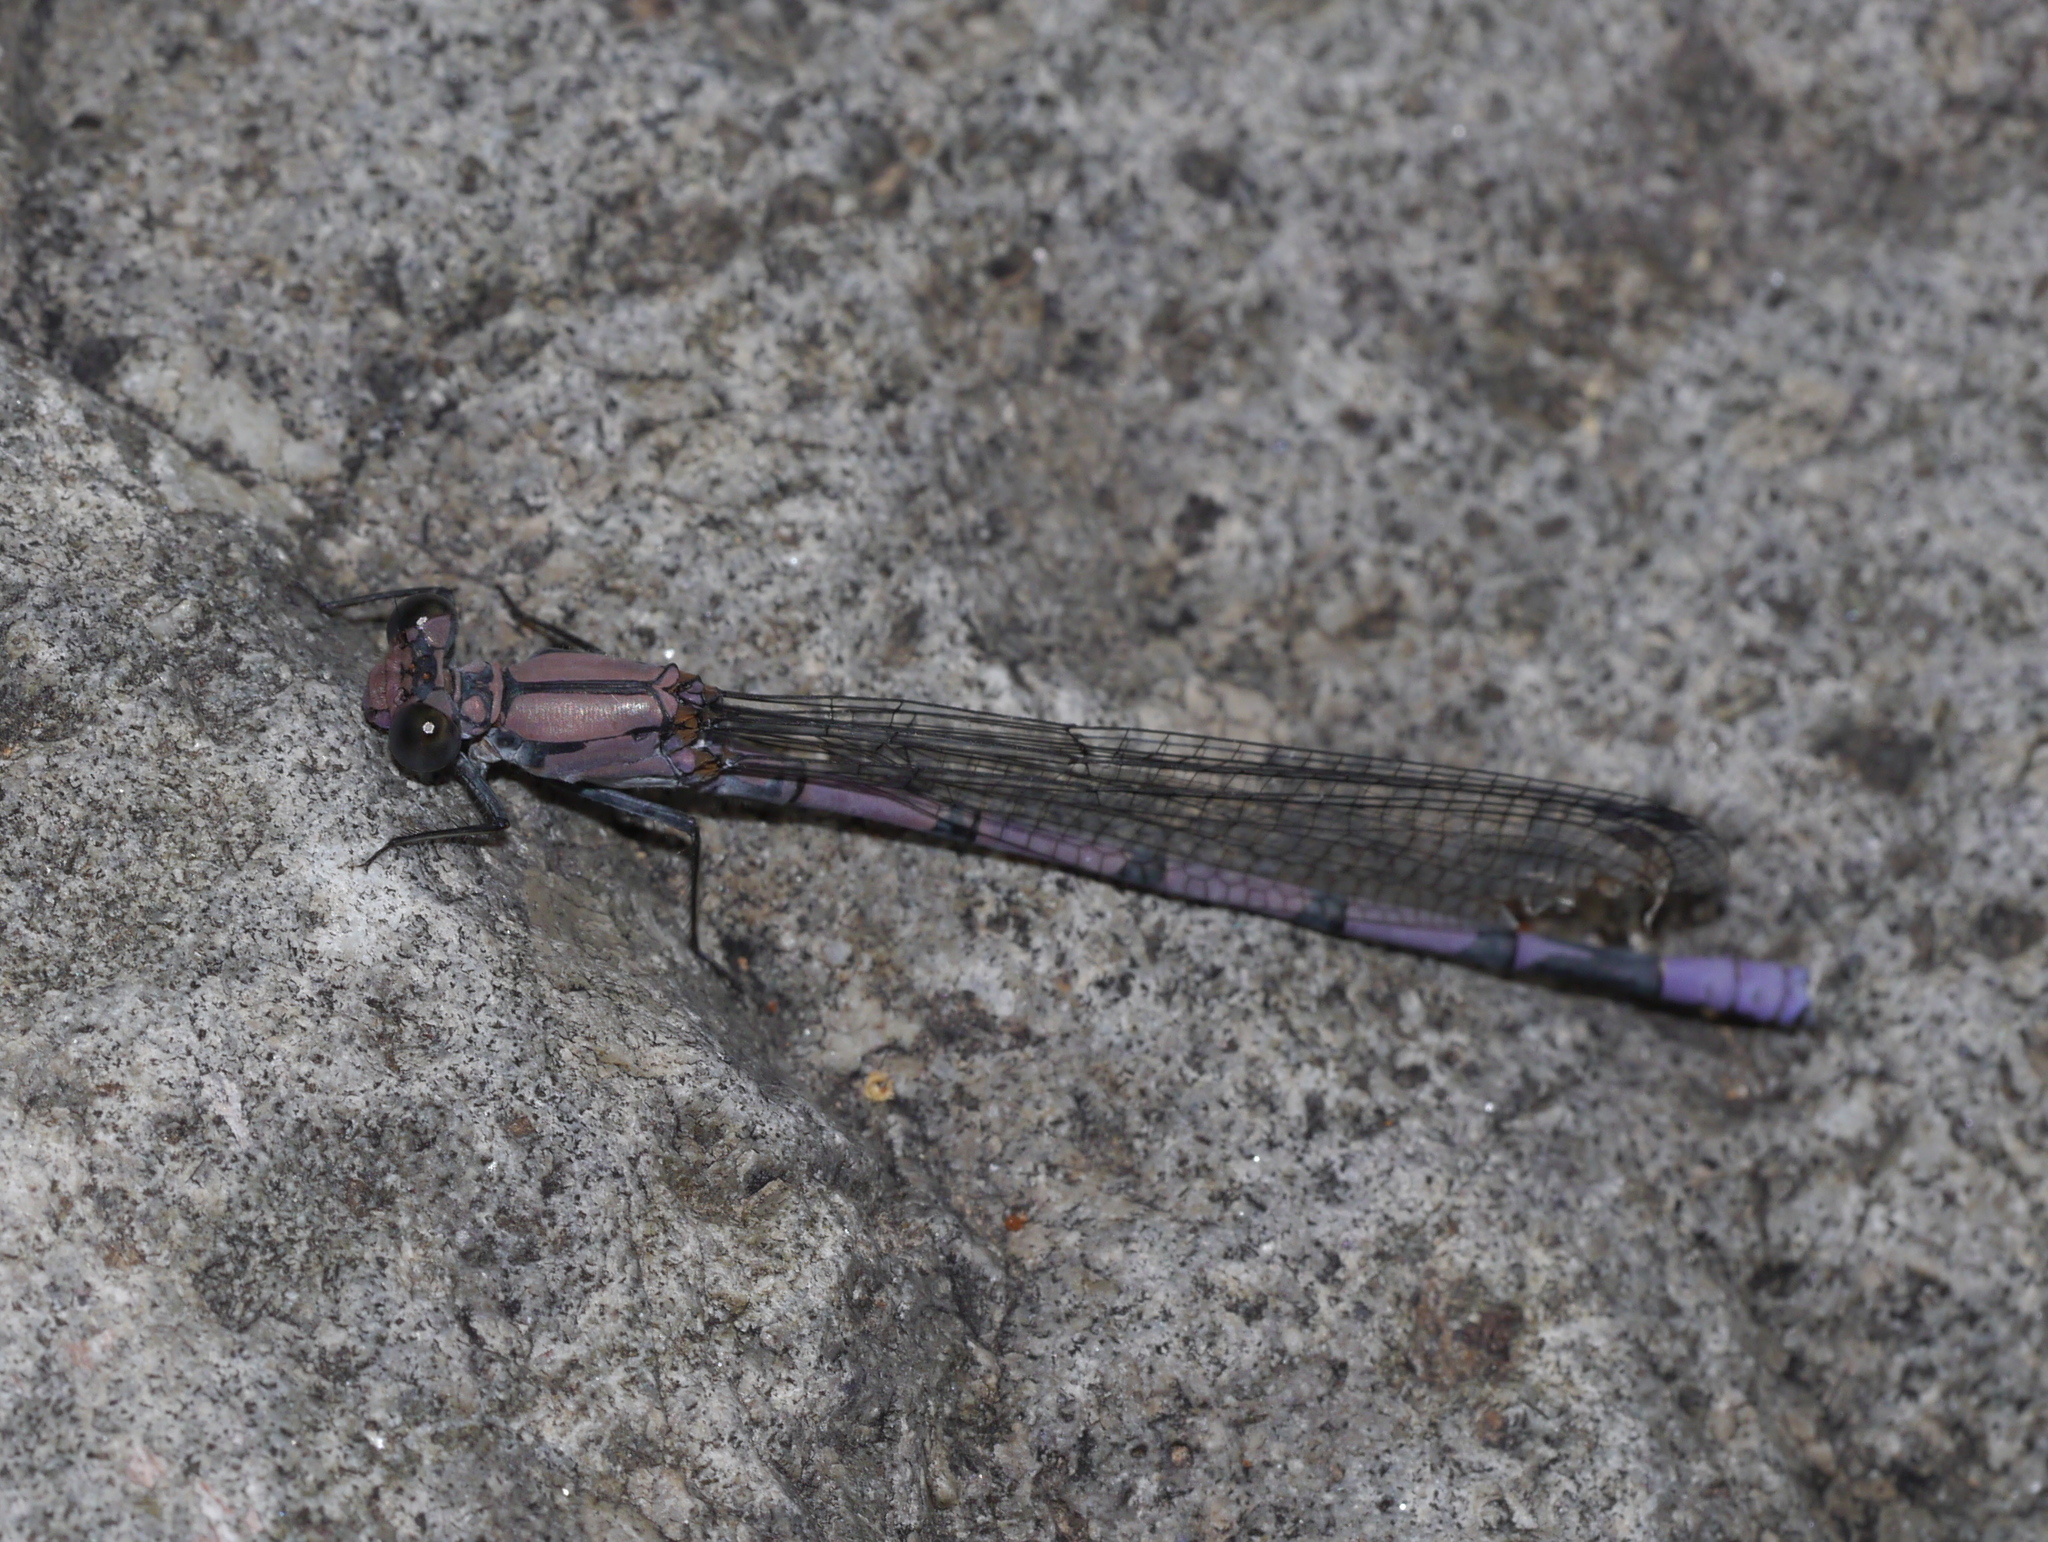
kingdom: Animalia
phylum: Arthropoda
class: Insecta
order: Odonata
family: Coenagrionidae
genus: Argia
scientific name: Argia tonto
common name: Tonto dancer
